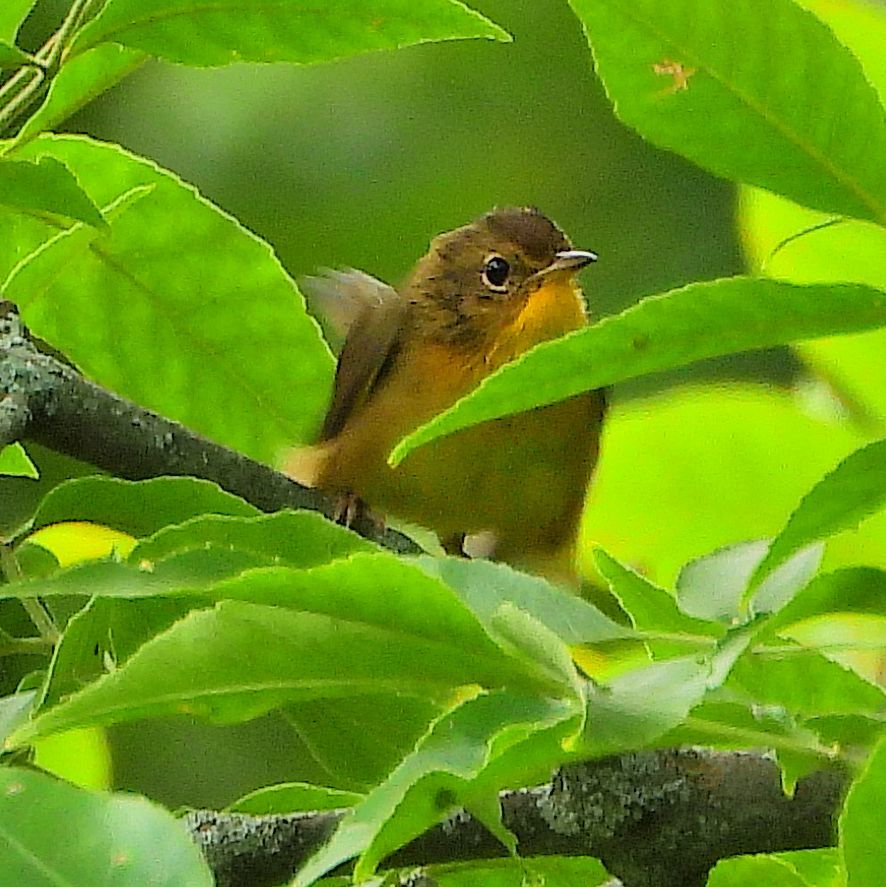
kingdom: Animalia
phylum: Chordata
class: Aves
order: Passeriformes
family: Parulidae
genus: Geothlypis
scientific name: Geothlypis trichas
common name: Common yellowthroat
